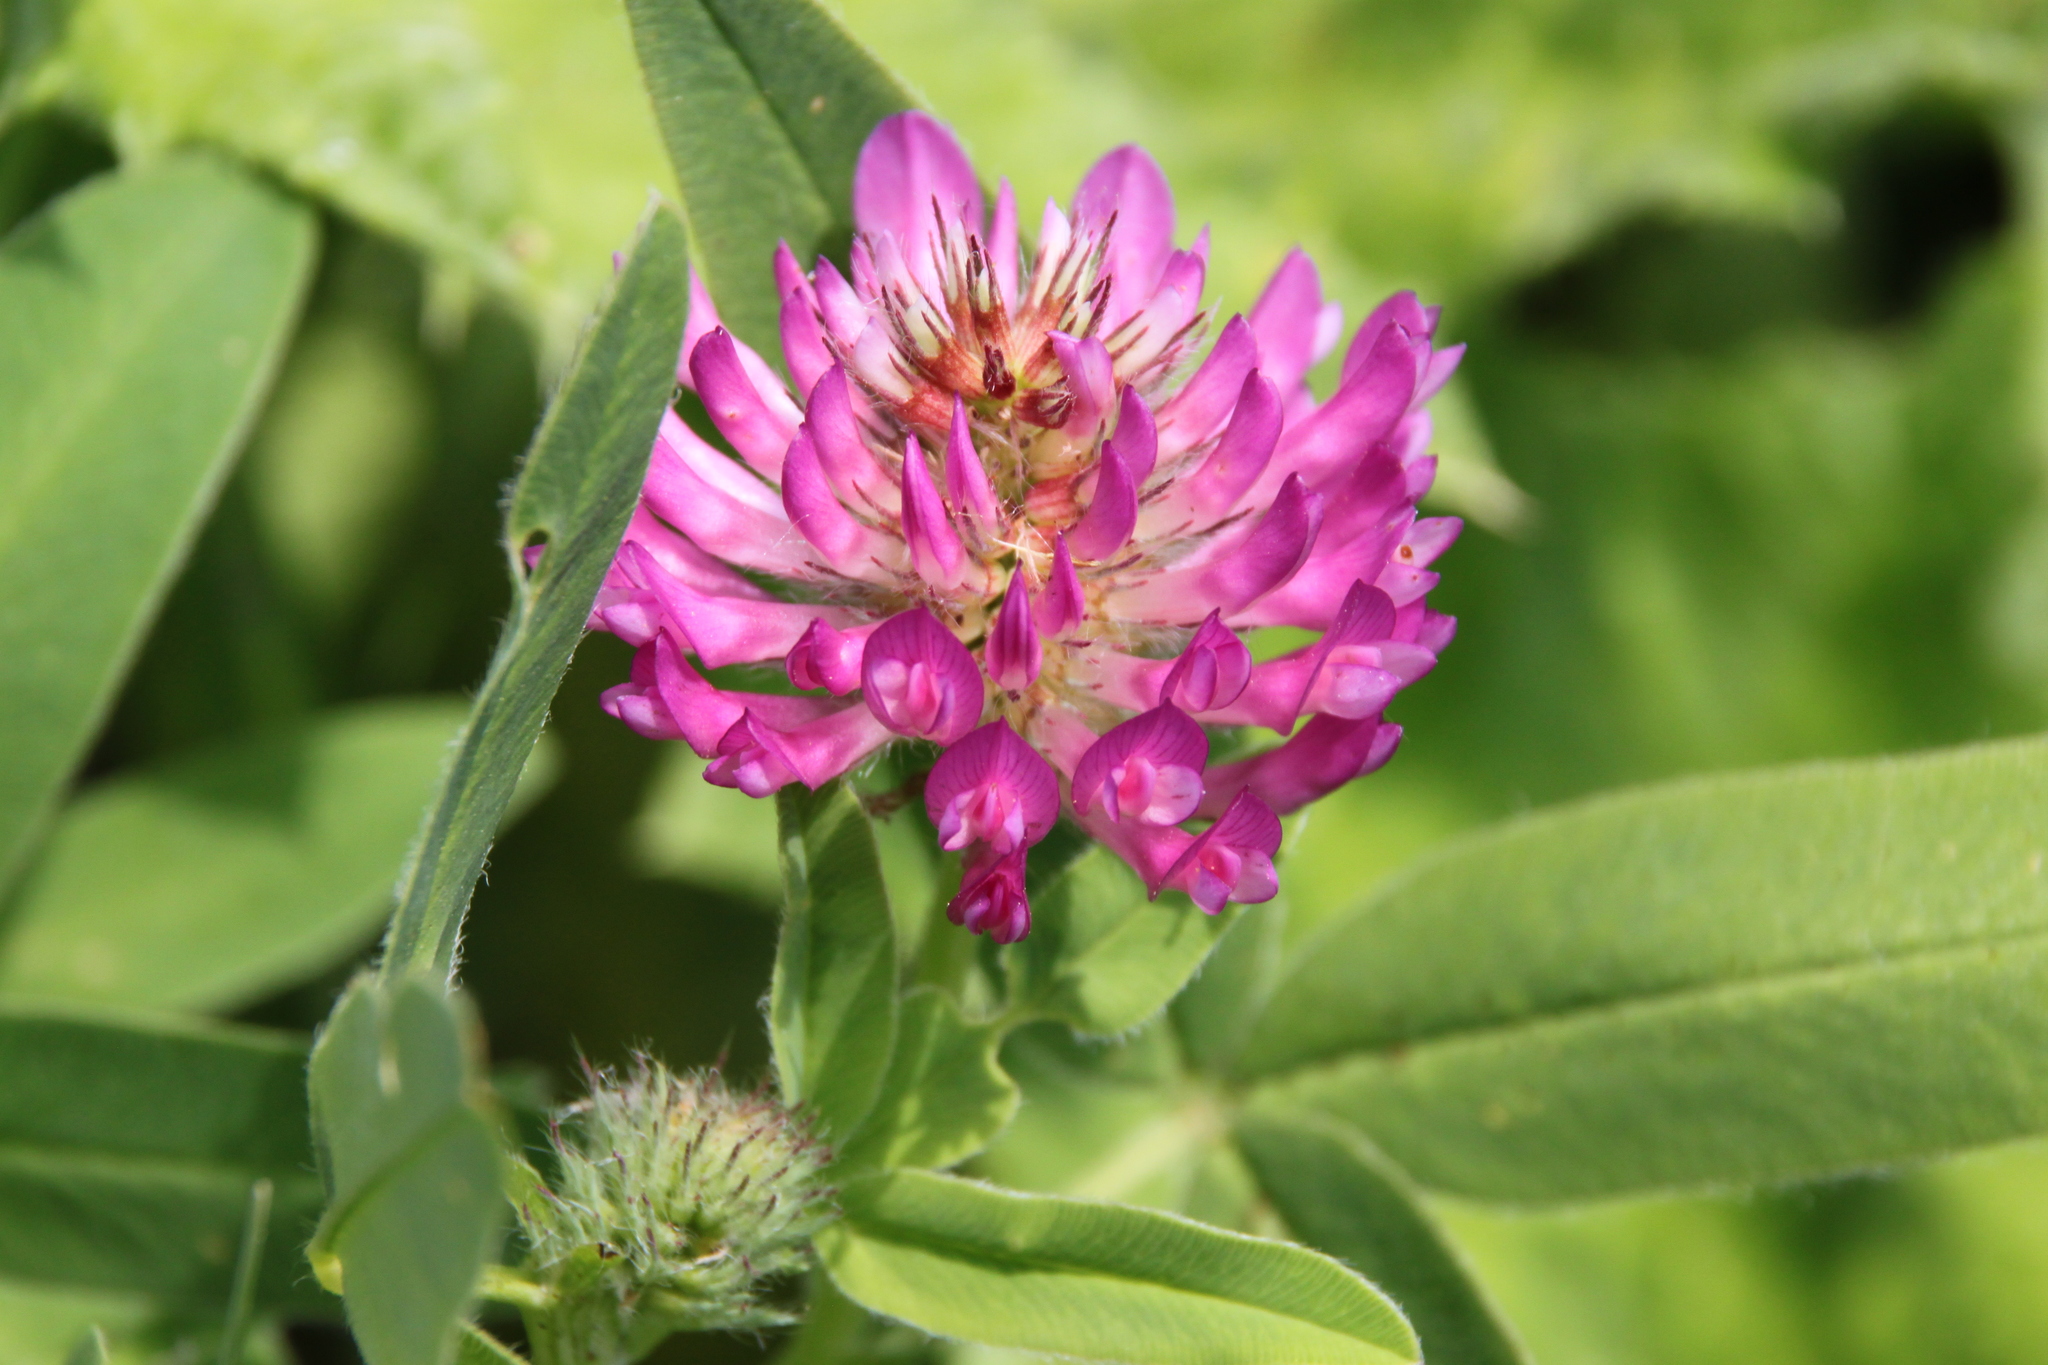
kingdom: Plantae
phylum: Tracheophyta
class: Magnoliopsida
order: Fabales
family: Fabaceae
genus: Trifolium
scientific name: Trifolium medium
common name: Zigzag clover
